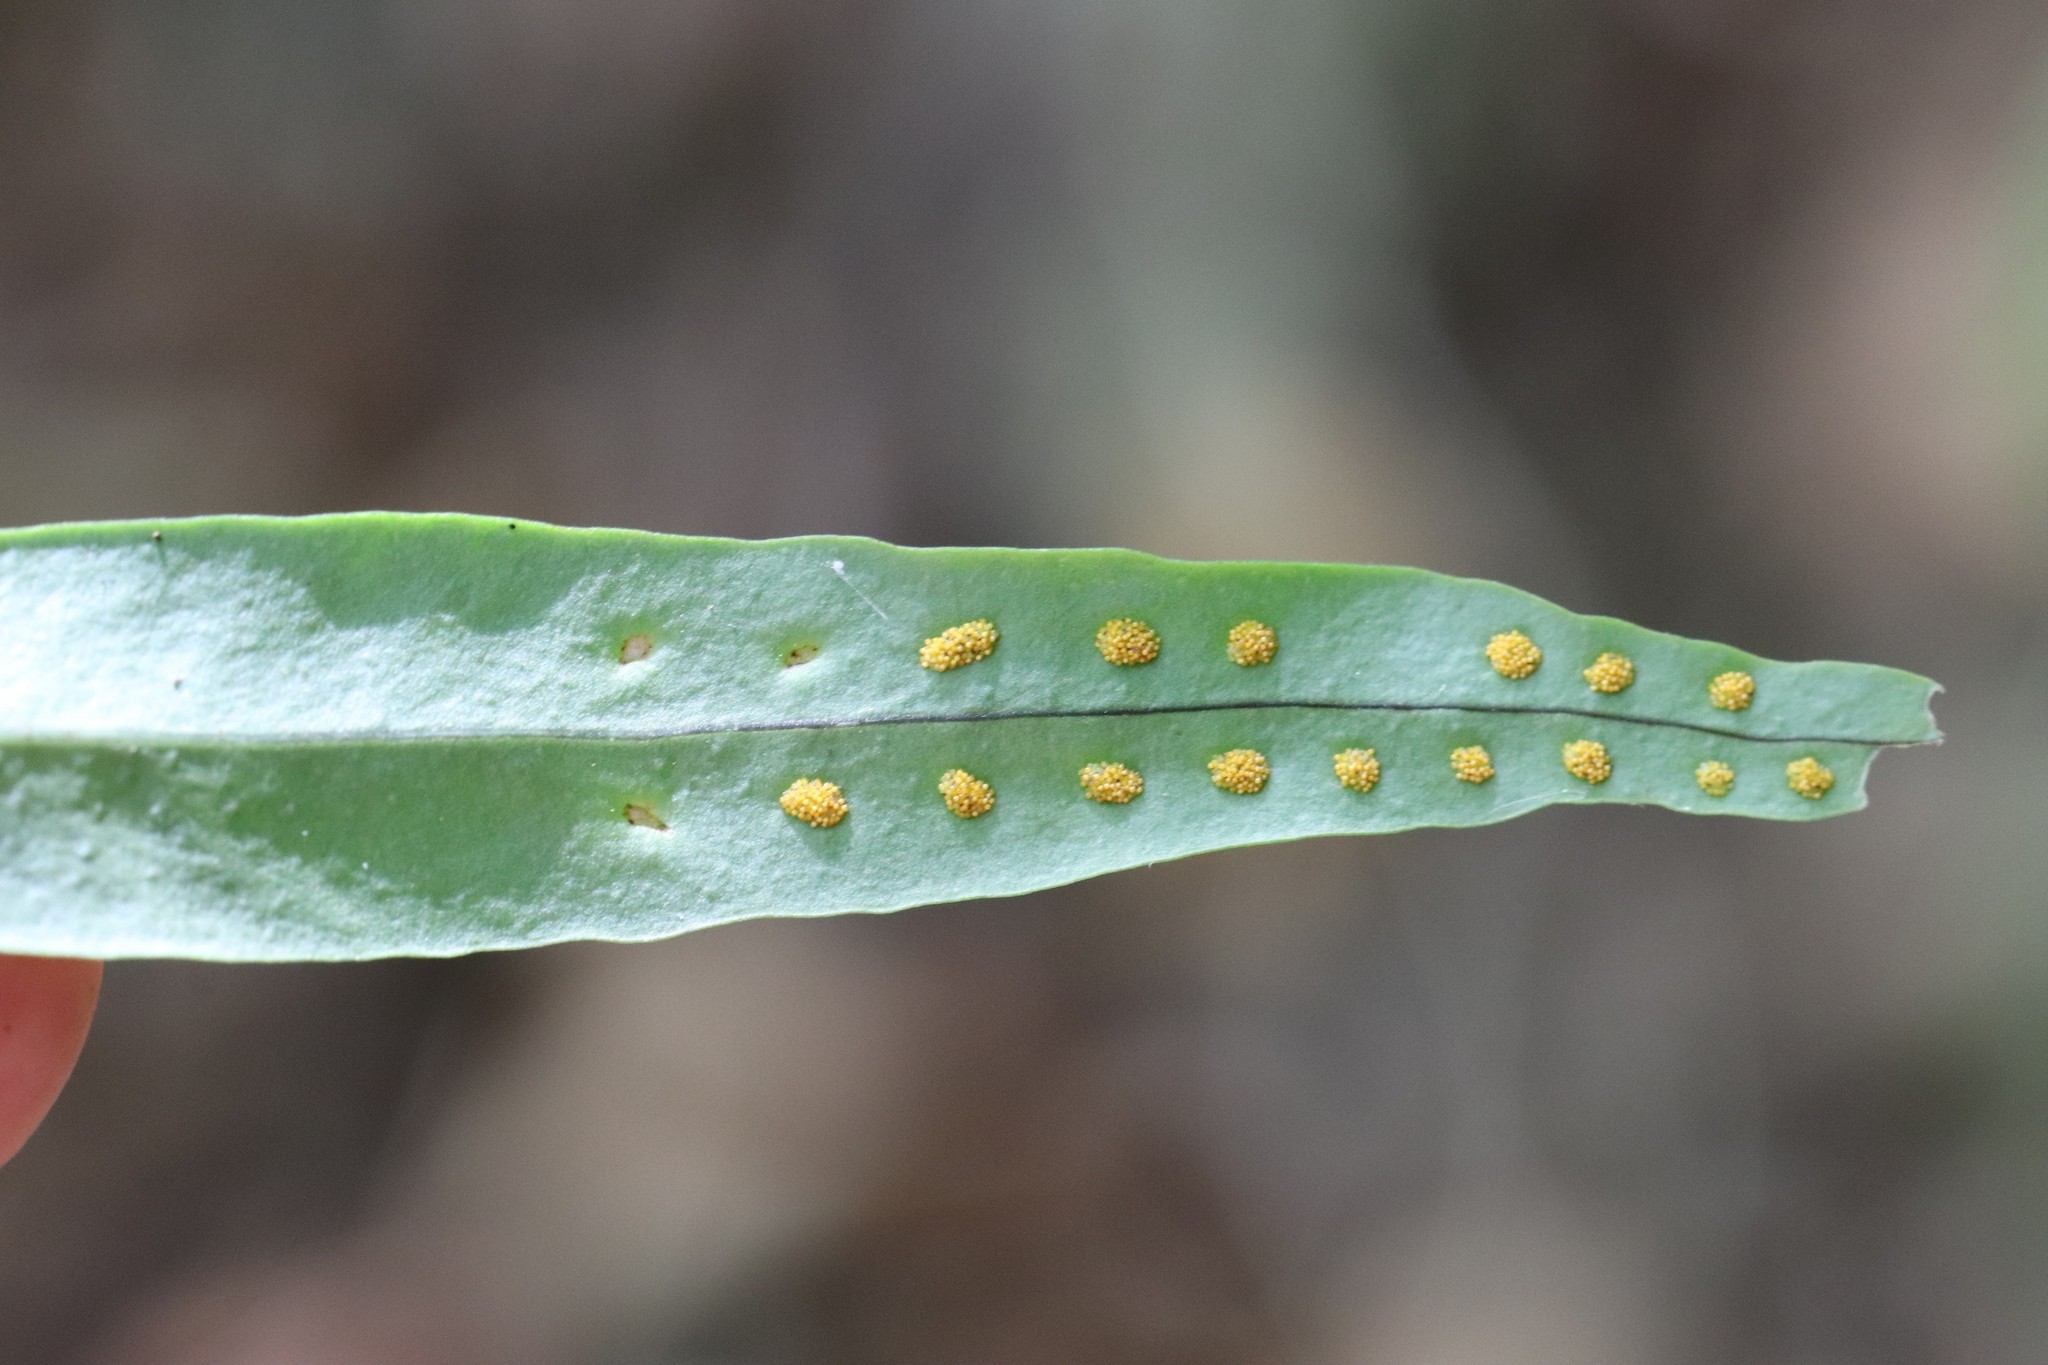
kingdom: Plantae
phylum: Tracheophyta
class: Polypodiopsida
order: Polypodiales
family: Polypodiaceae
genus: Lepisorus
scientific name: Lepisorus ussuriensis
